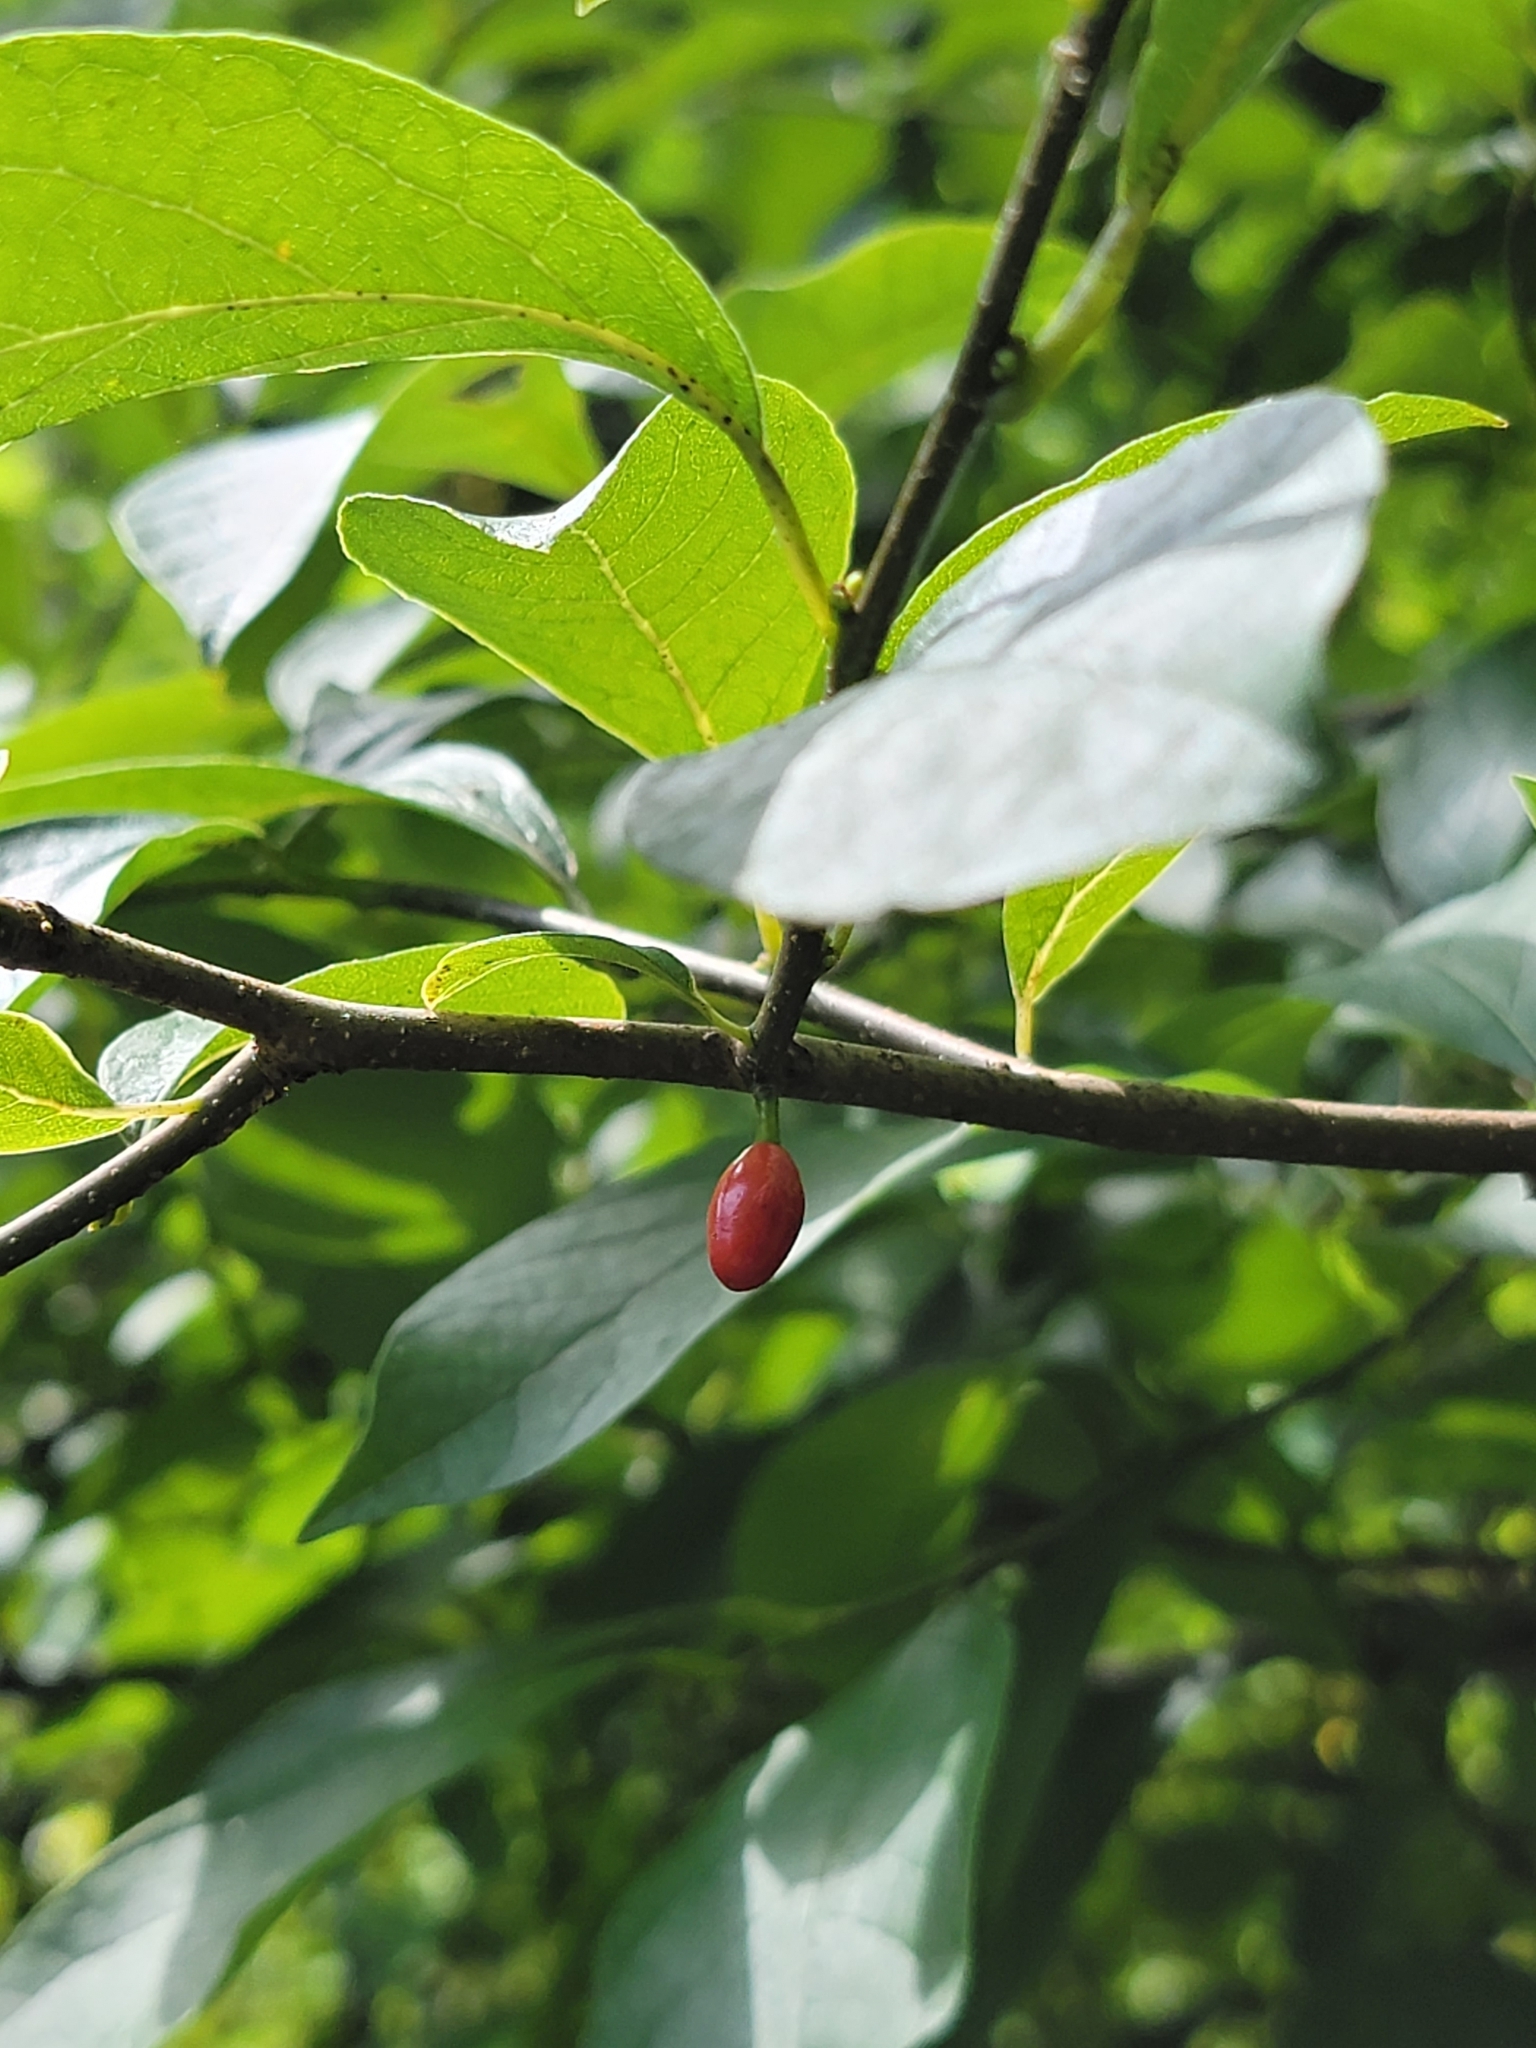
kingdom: Plantae
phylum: Tracheophyta
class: Magnoliopsida
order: Laurales
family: Lauraceae
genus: Lindera
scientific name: Lindera benzoin
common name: Spicebush
